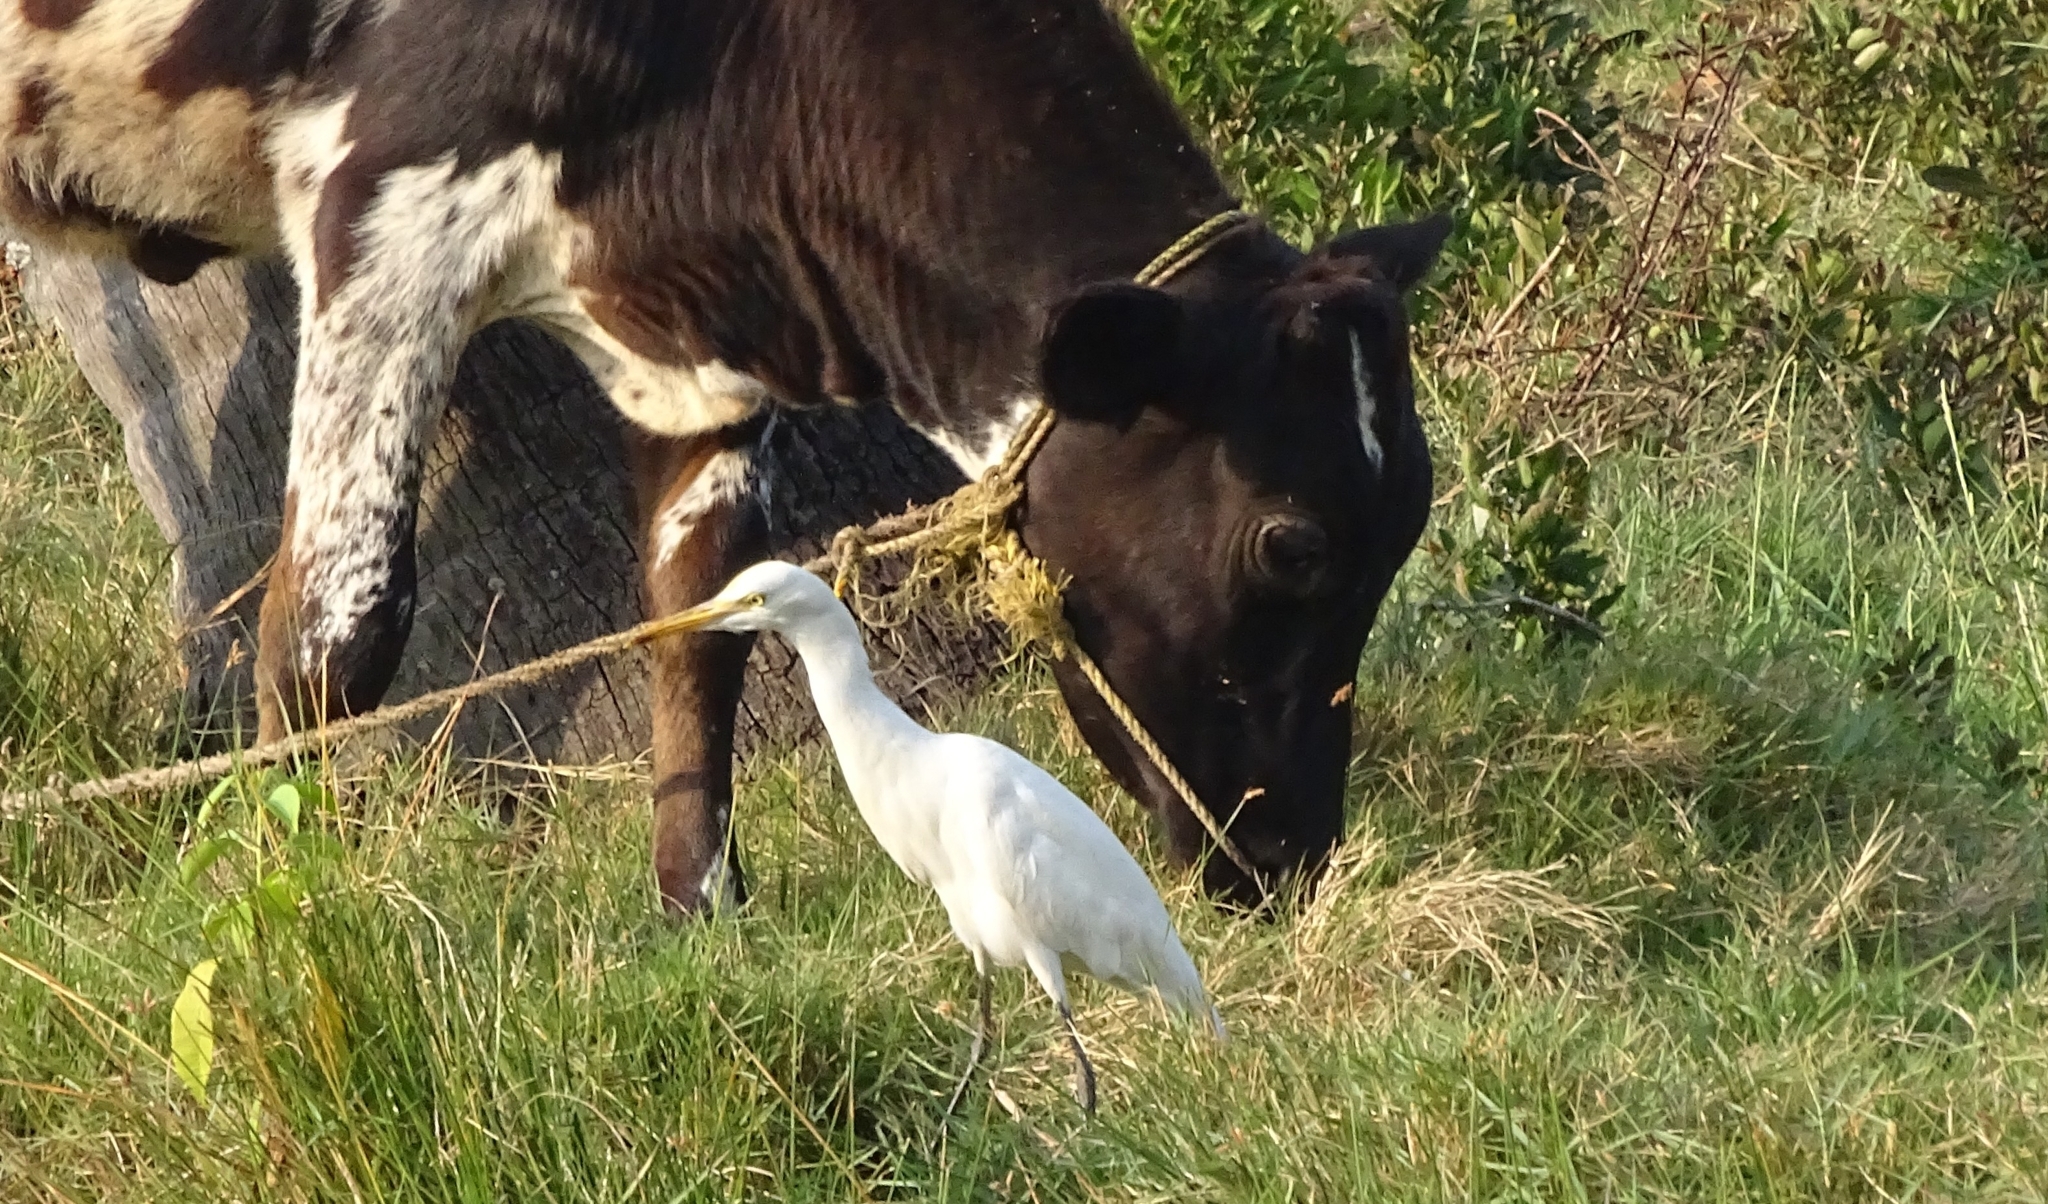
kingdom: Animalia
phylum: Chordata
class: Aves
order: Pelecaniformes
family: Ardeidae
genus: Bubulcus
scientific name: Bubulcus coromandus
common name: Eastern cattle egret
